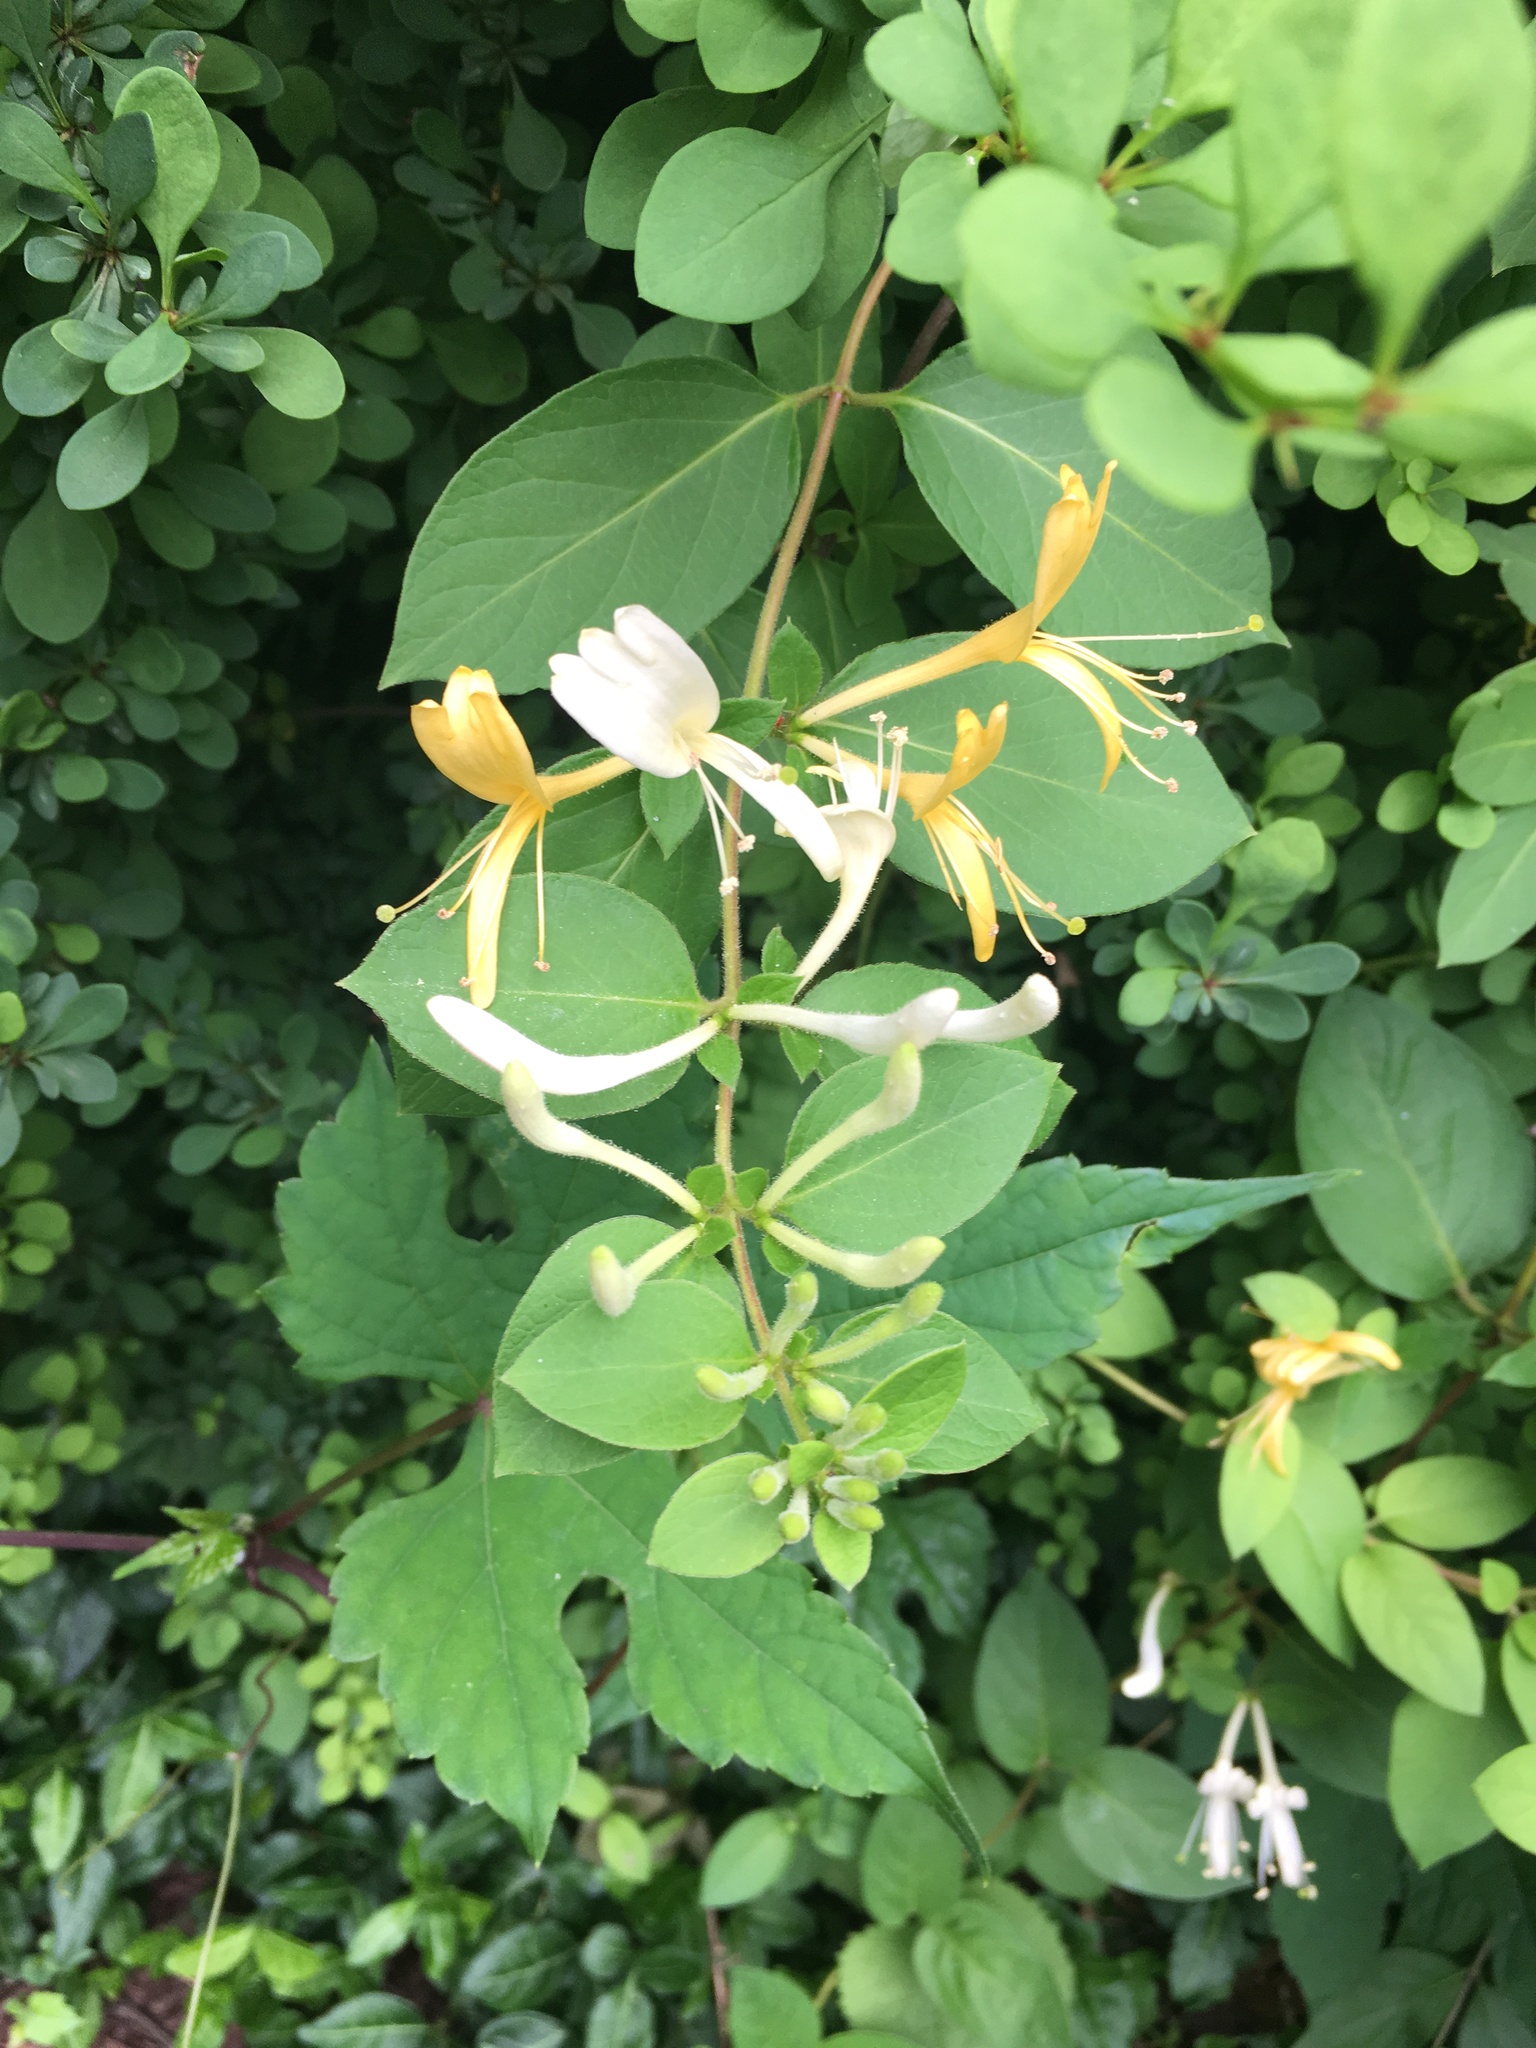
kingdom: Plantae
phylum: Tracheophyta
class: Magnoliopsida
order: Dipsacales
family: Caprifoliaceae
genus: Lonicera
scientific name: Lonicera japonica
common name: Japanese honeysuckle
